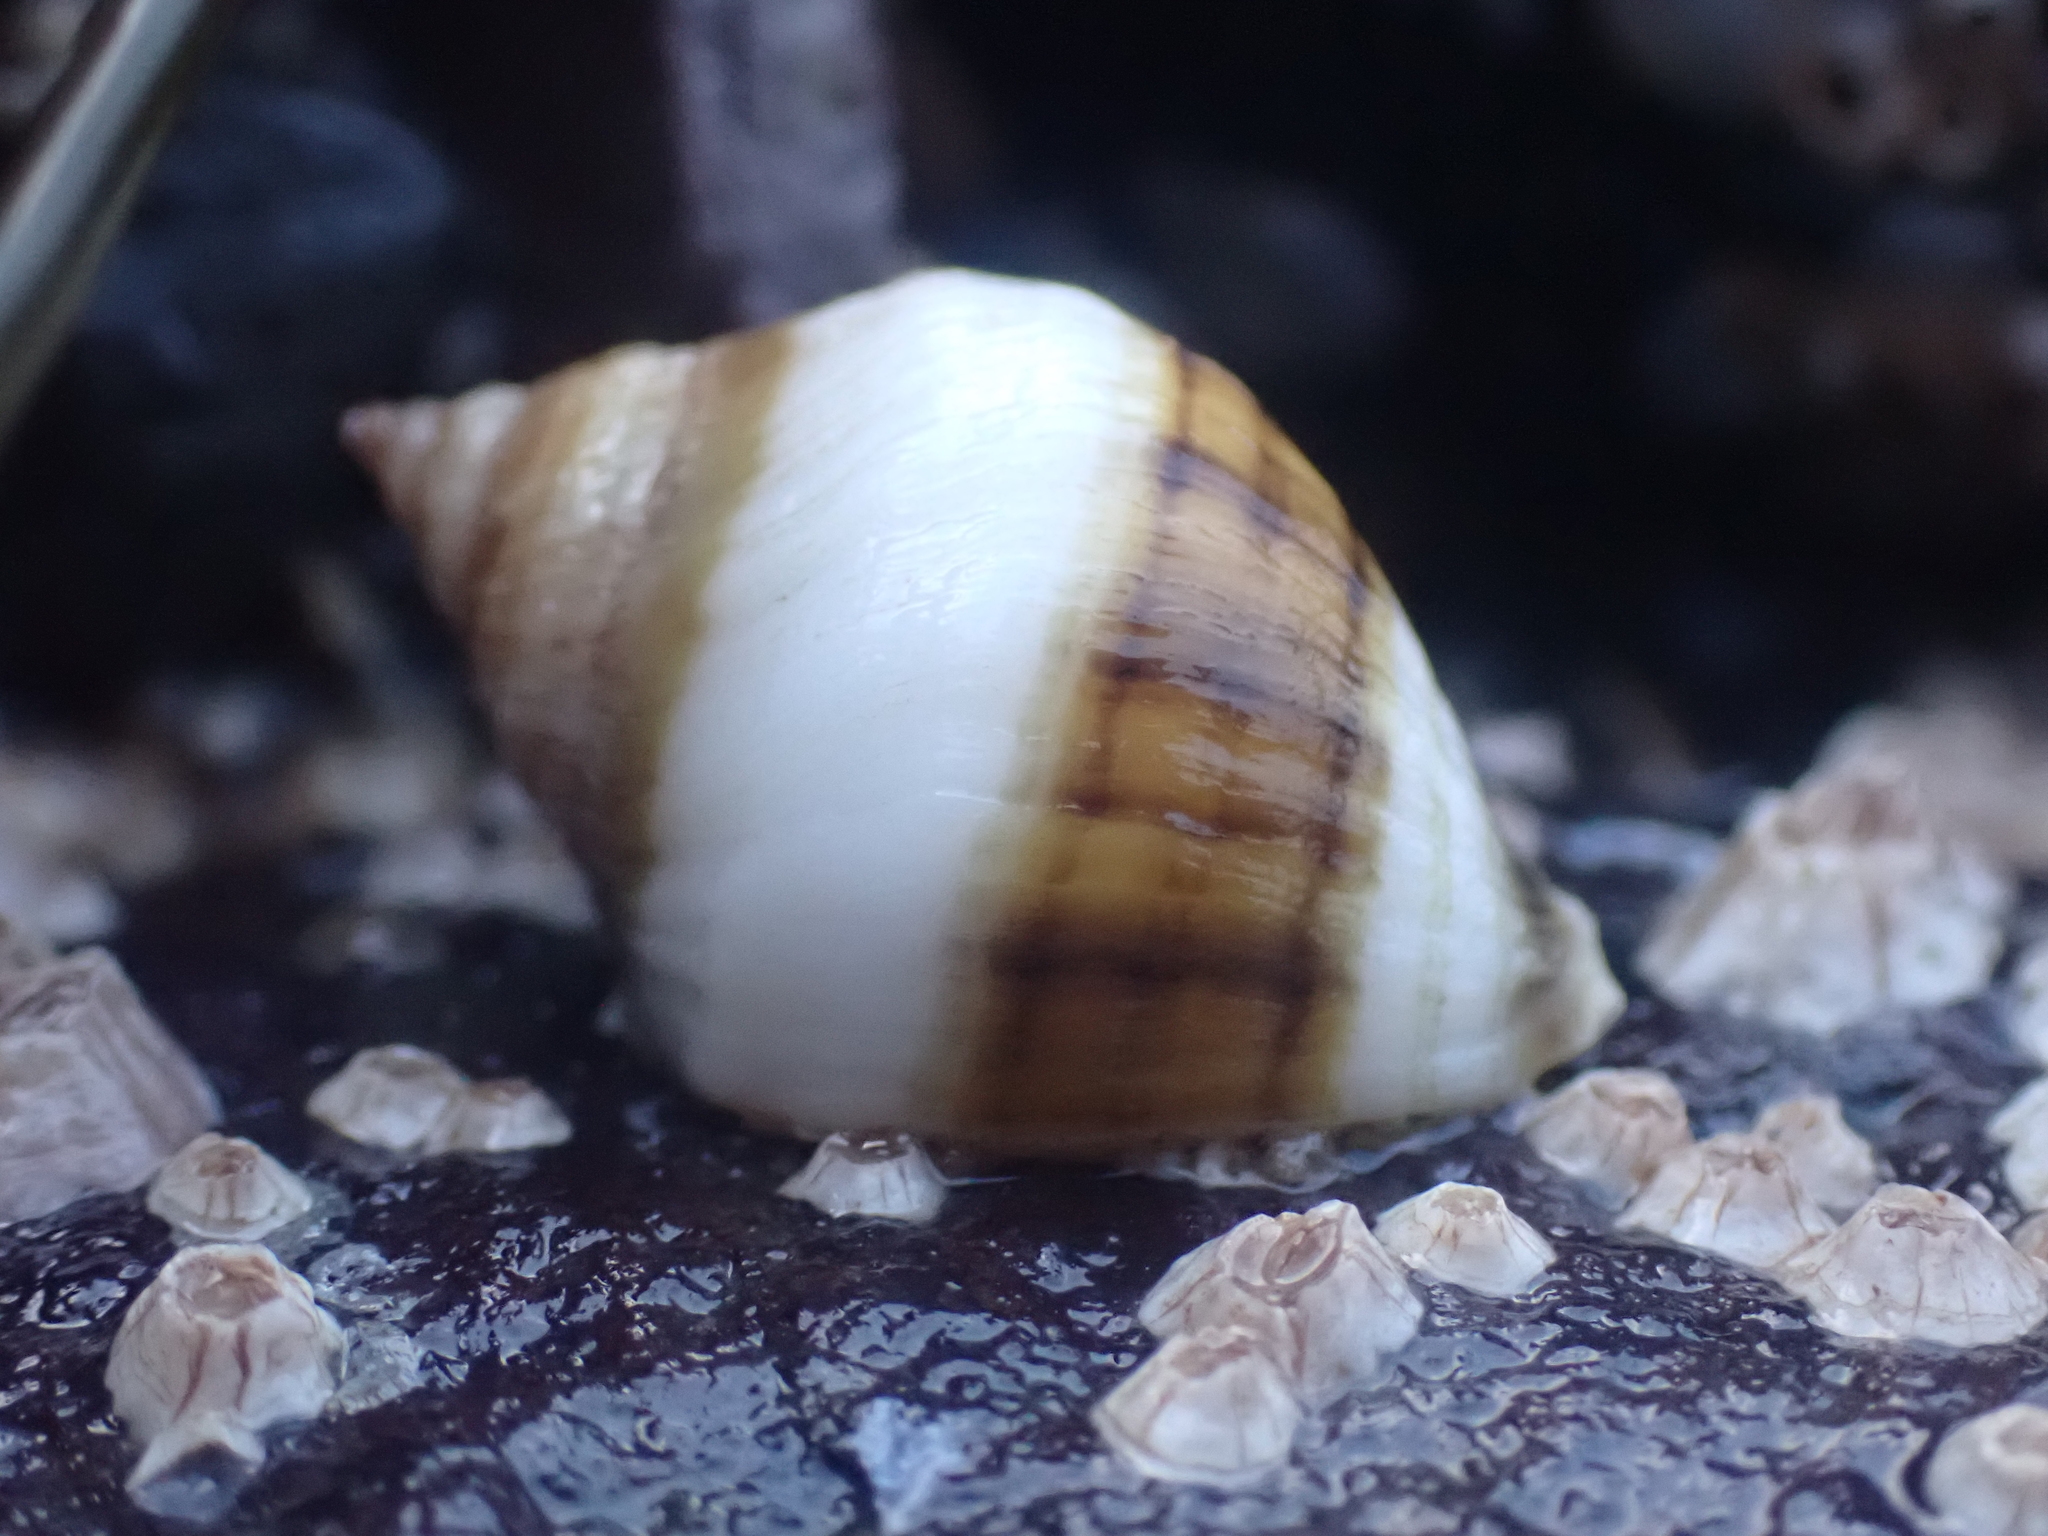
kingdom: Animalia
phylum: Mollusca
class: Gastropoda
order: Neogastropoda
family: Muricidae
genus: Nucella
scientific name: Nucella lapillus
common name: Dog whelk
